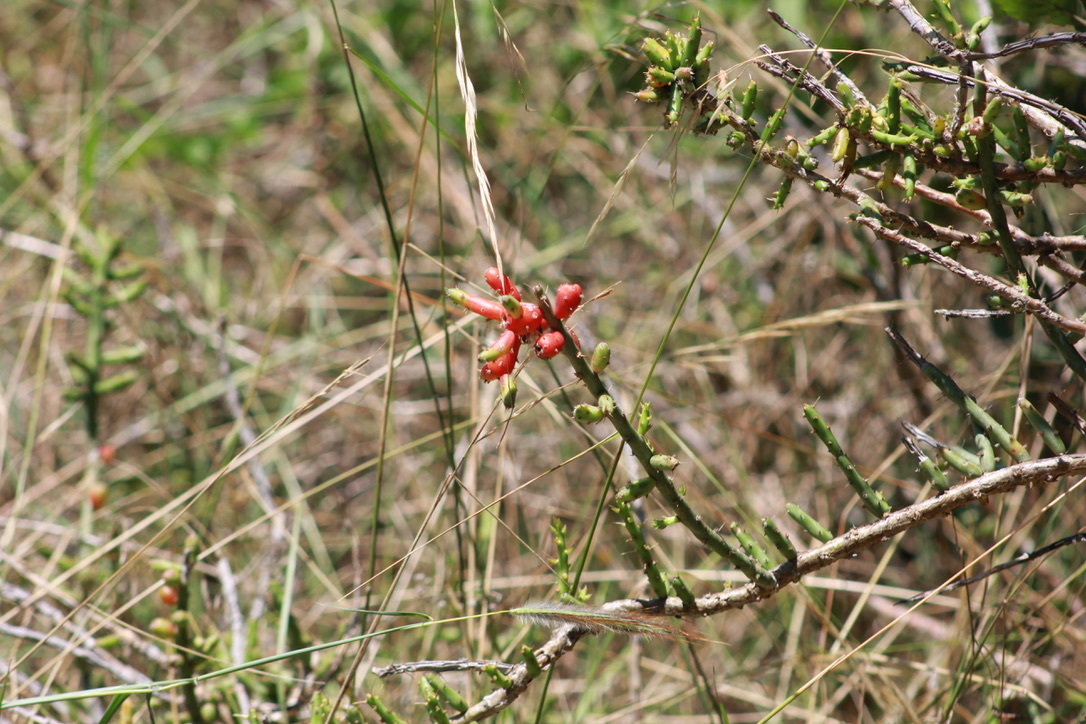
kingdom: Plantae
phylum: Tracheophyta
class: Magnoliopsida
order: Caryophyllales
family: Cactaceae
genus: Cylindropuntia
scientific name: Cylindropuntia leptocaulis
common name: Christmas cactus
